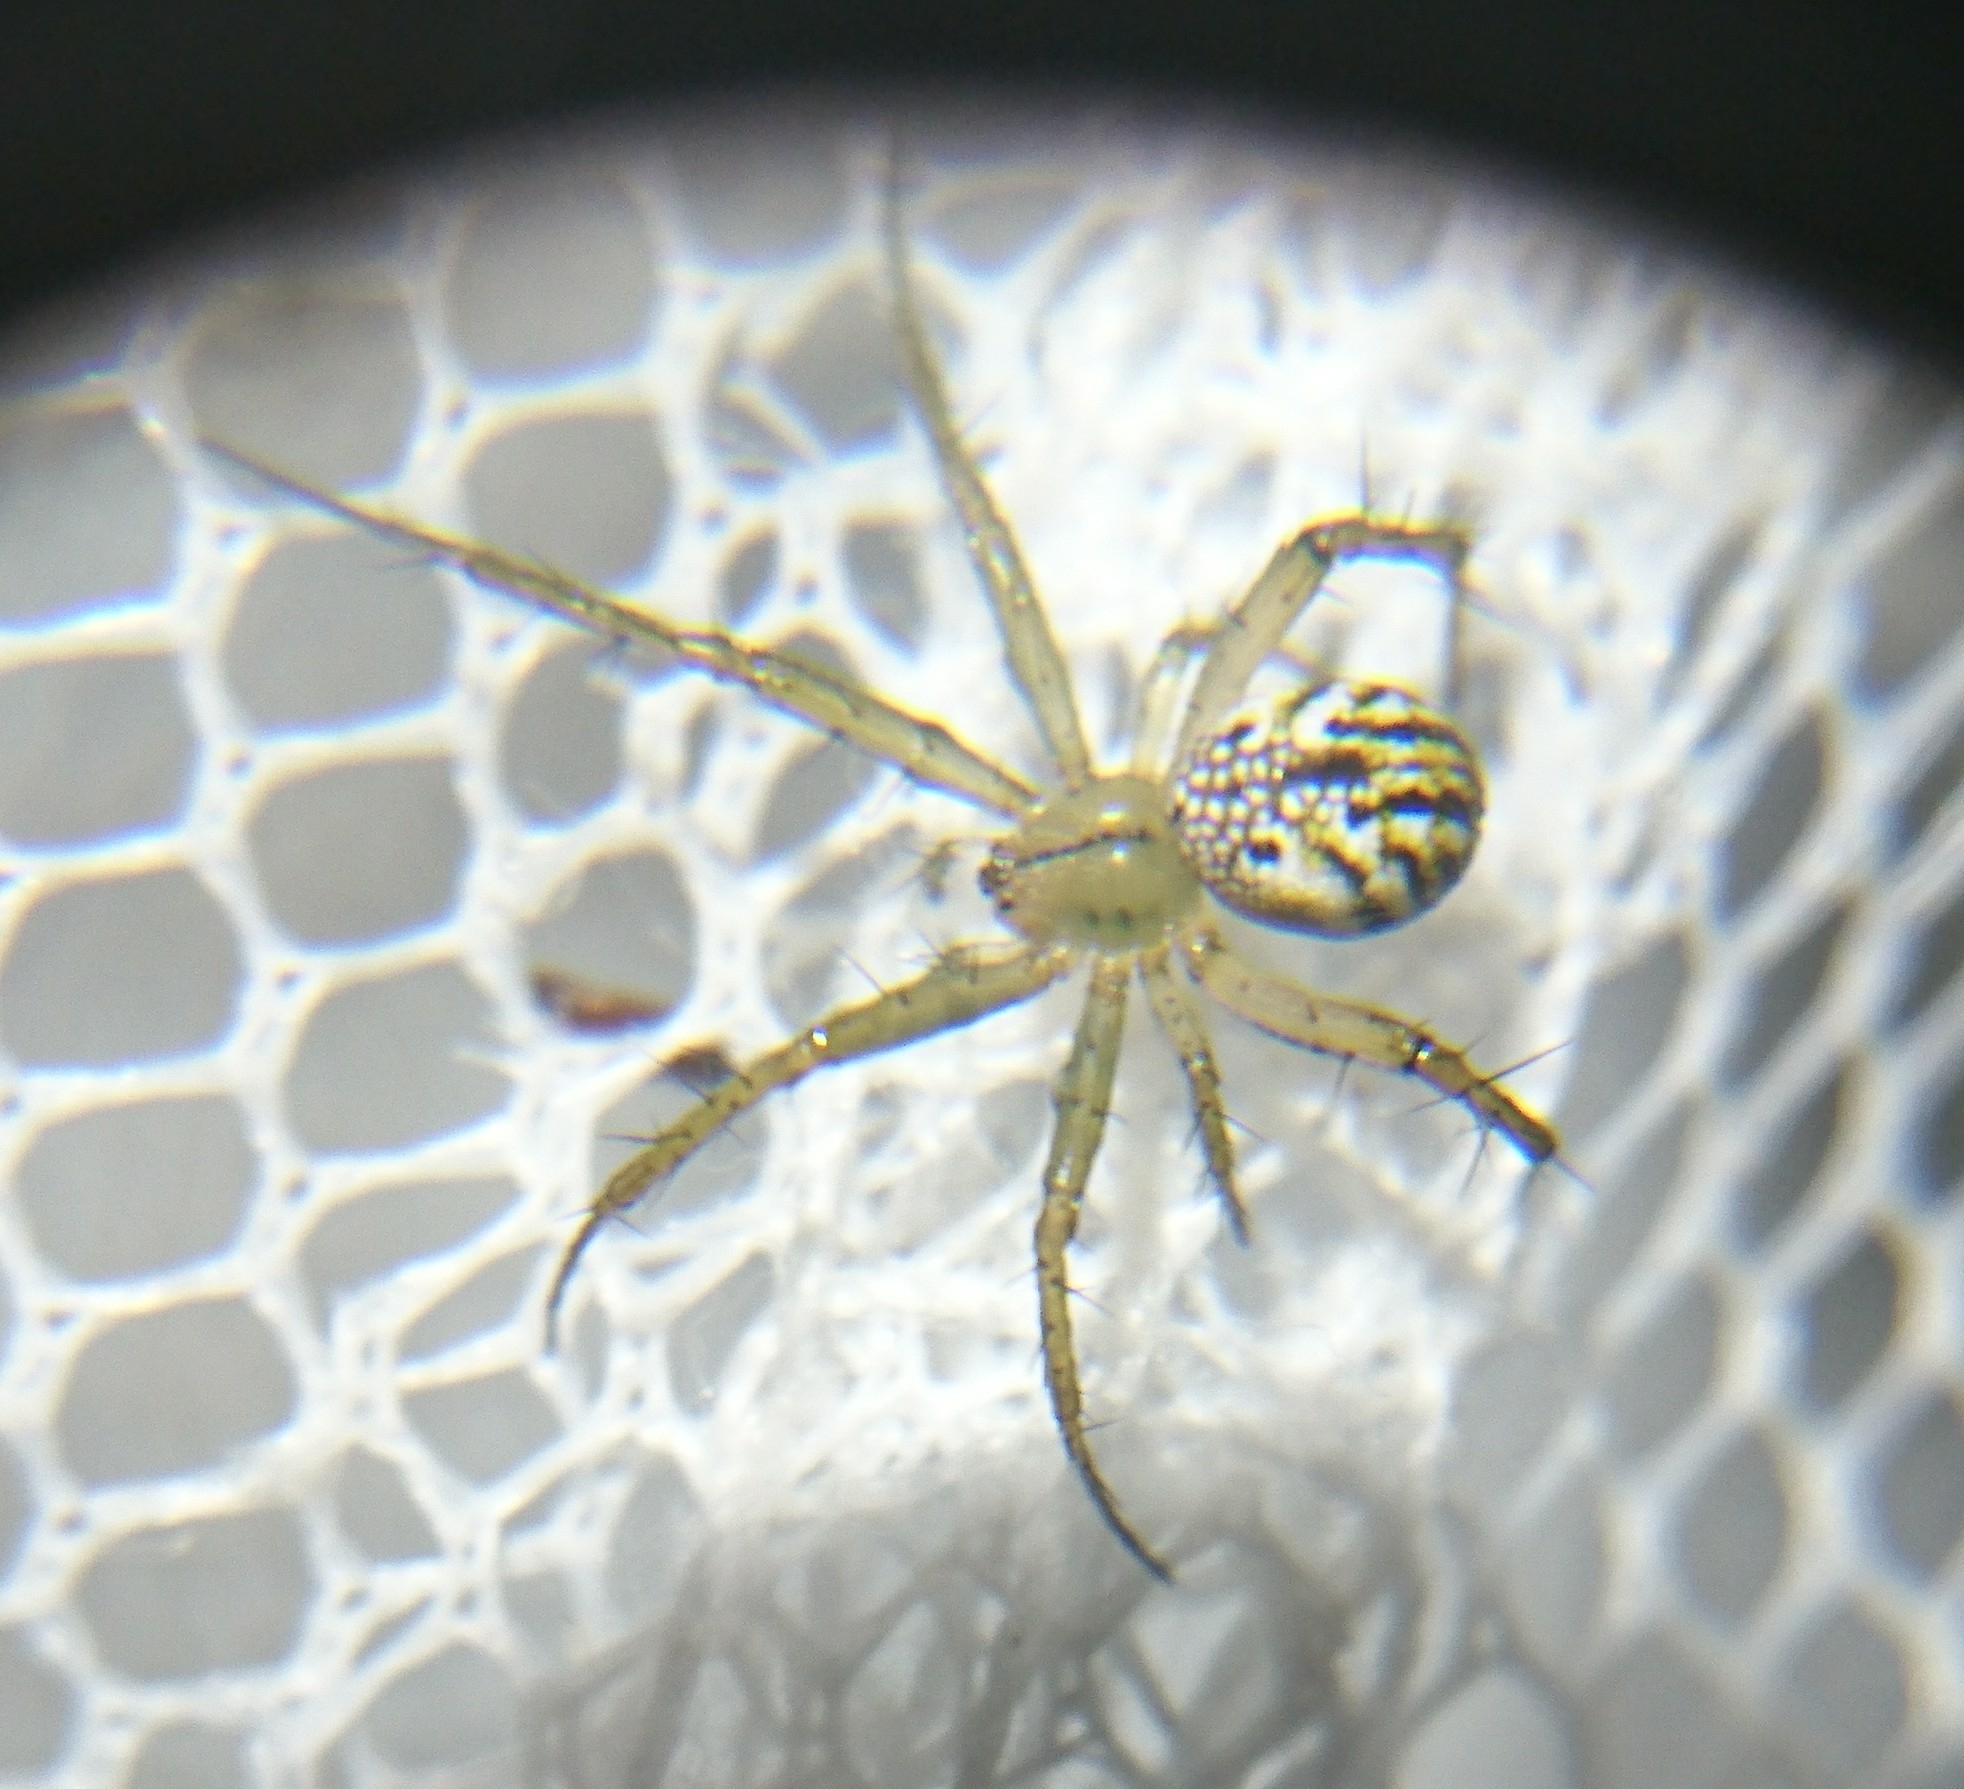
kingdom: Animalia
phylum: Arthropoda
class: Arachnida
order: Araneae
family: Araneidae
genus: Mangora
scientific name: Mangora gibberosa
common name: Lined orbweaver
